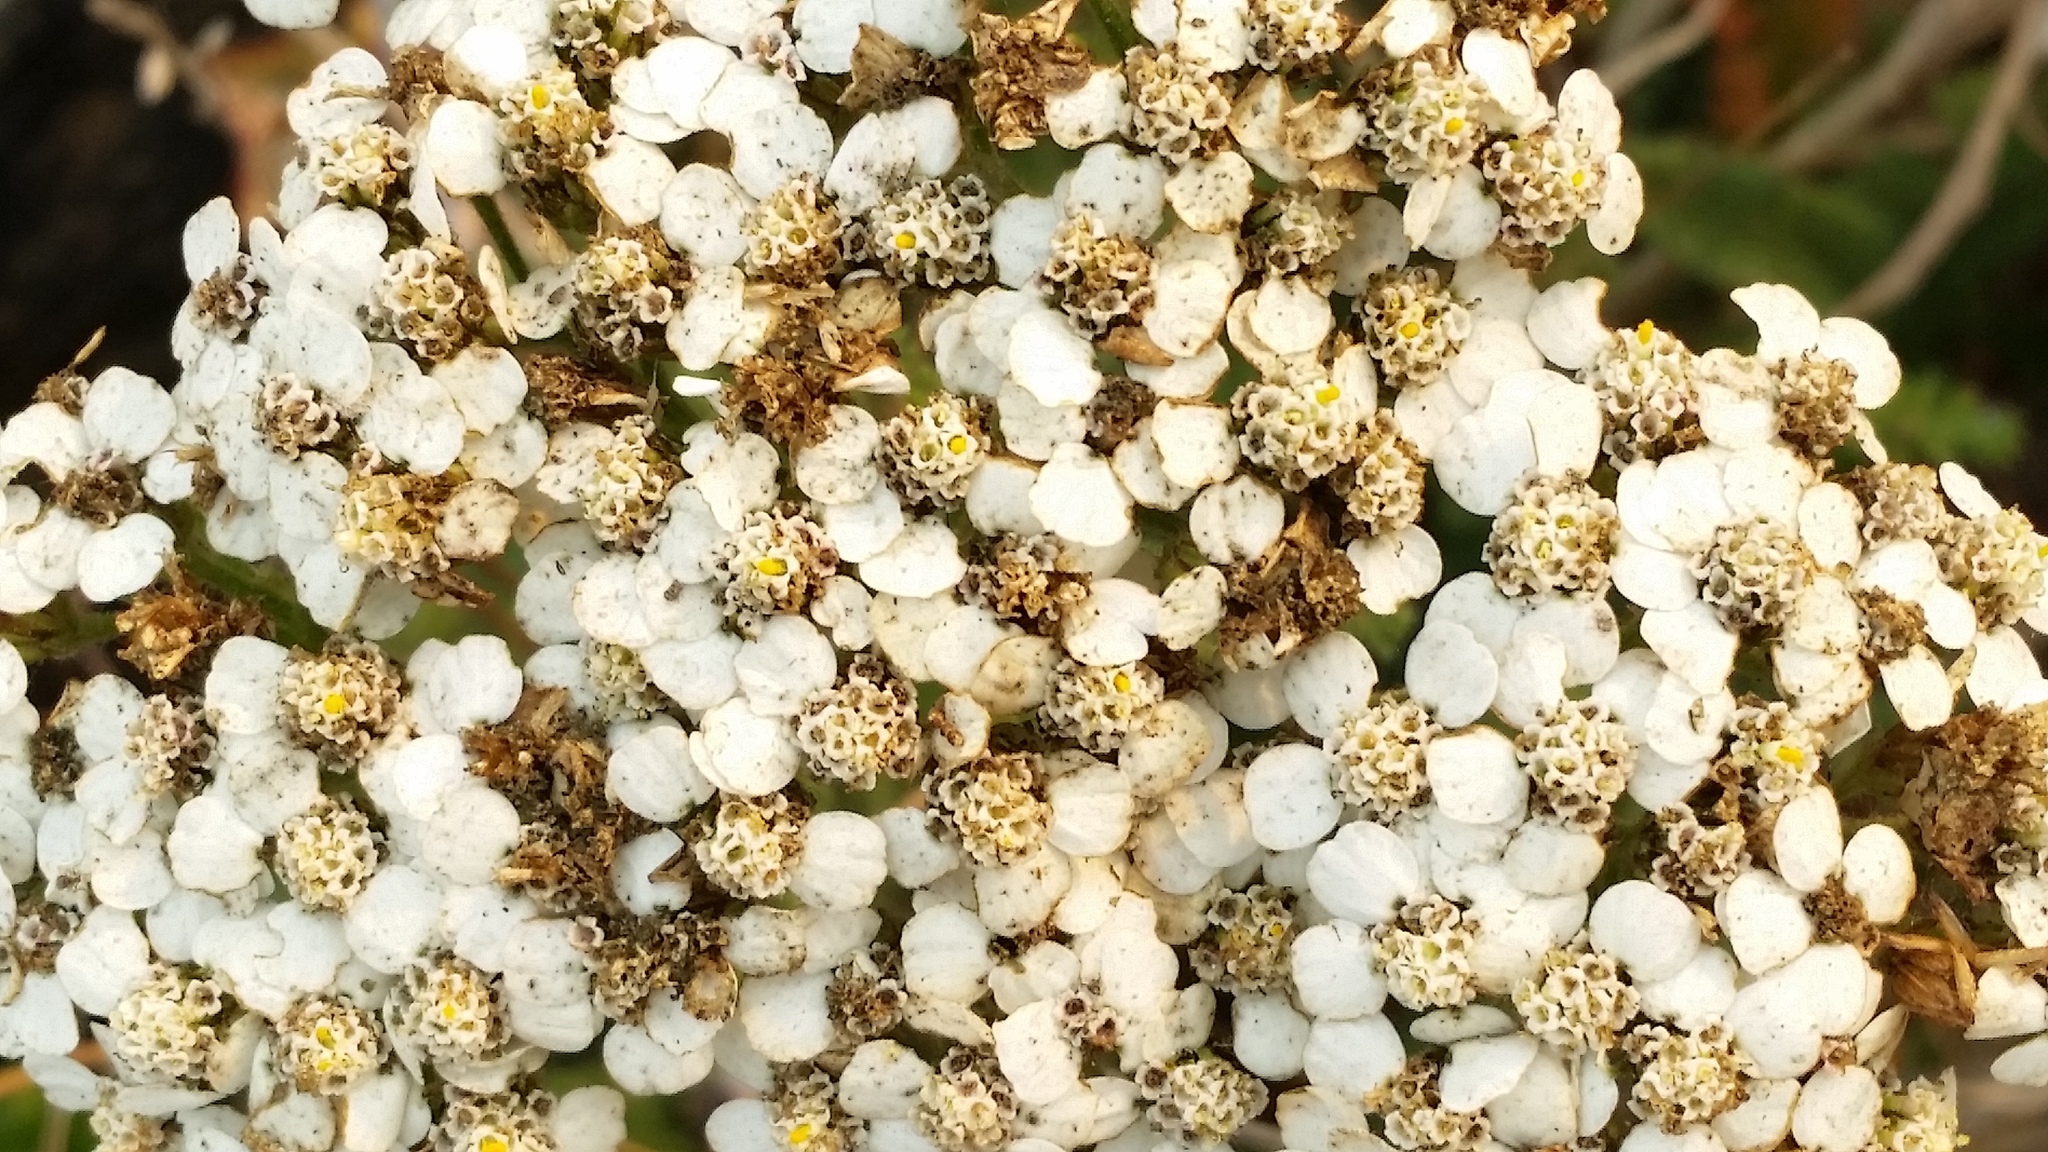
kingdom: Plantae
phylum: Tracheophyta
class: Magnoliopsida
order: Asterales
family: Asteraceae
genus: Achillea
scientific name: Achillea millefolium
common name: Yarrow
